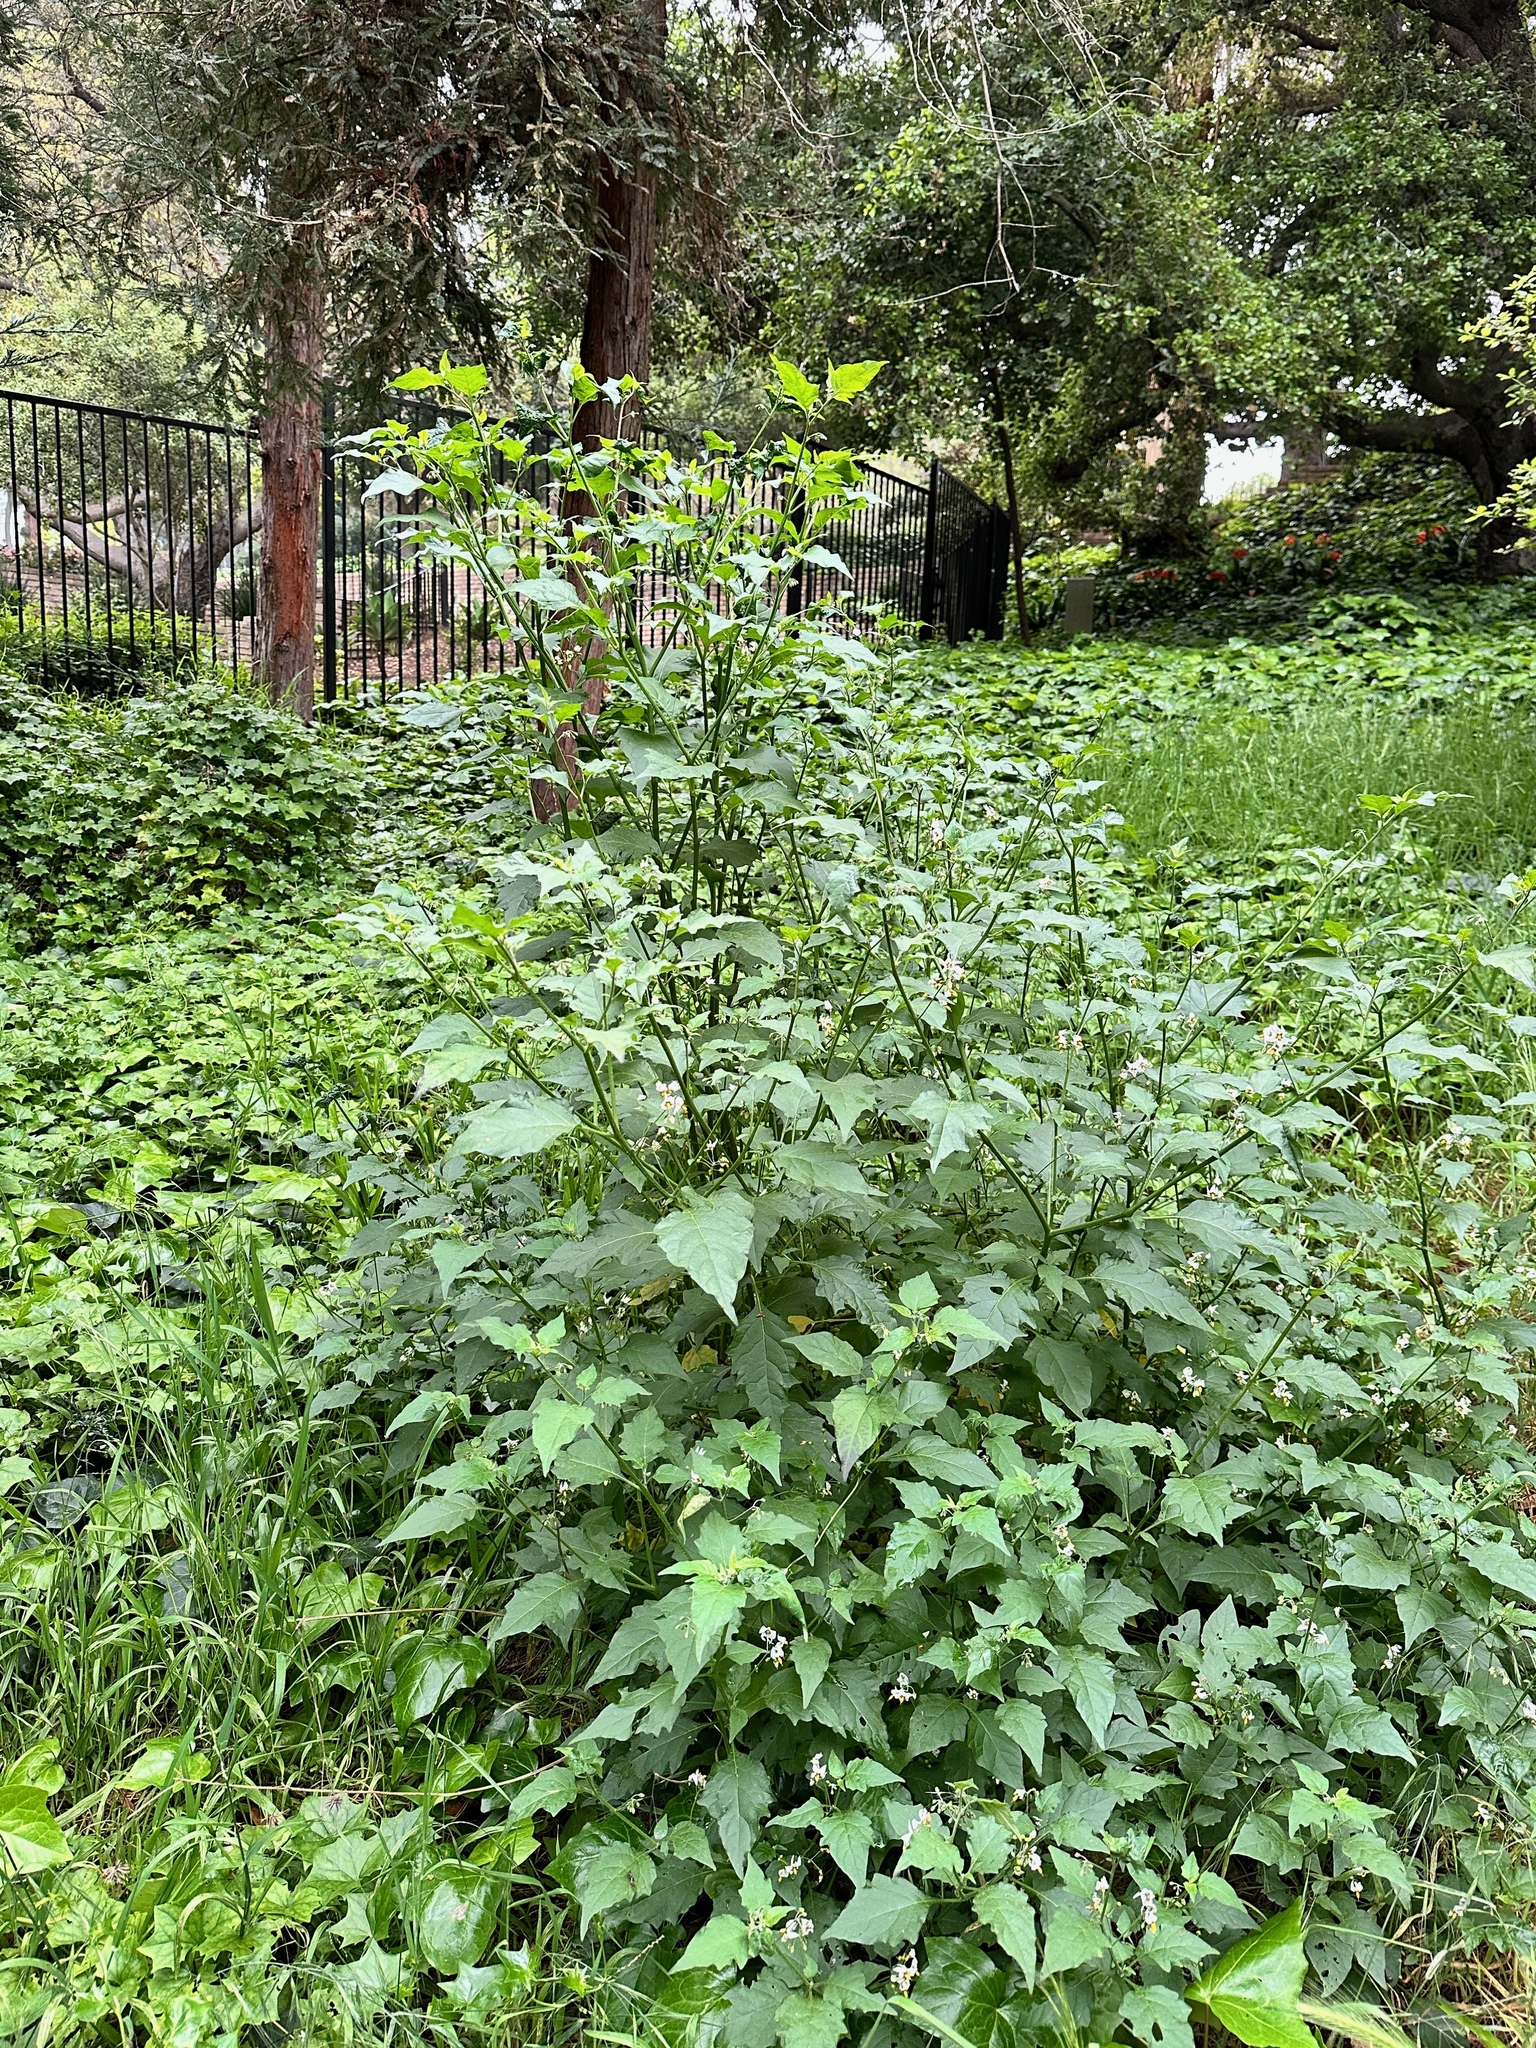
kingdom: Plantae
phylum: Tracheophyta
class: Magnoliopsida
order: Solanales
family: Solanaceae
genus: Solanum
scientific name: Solanum douglasii
